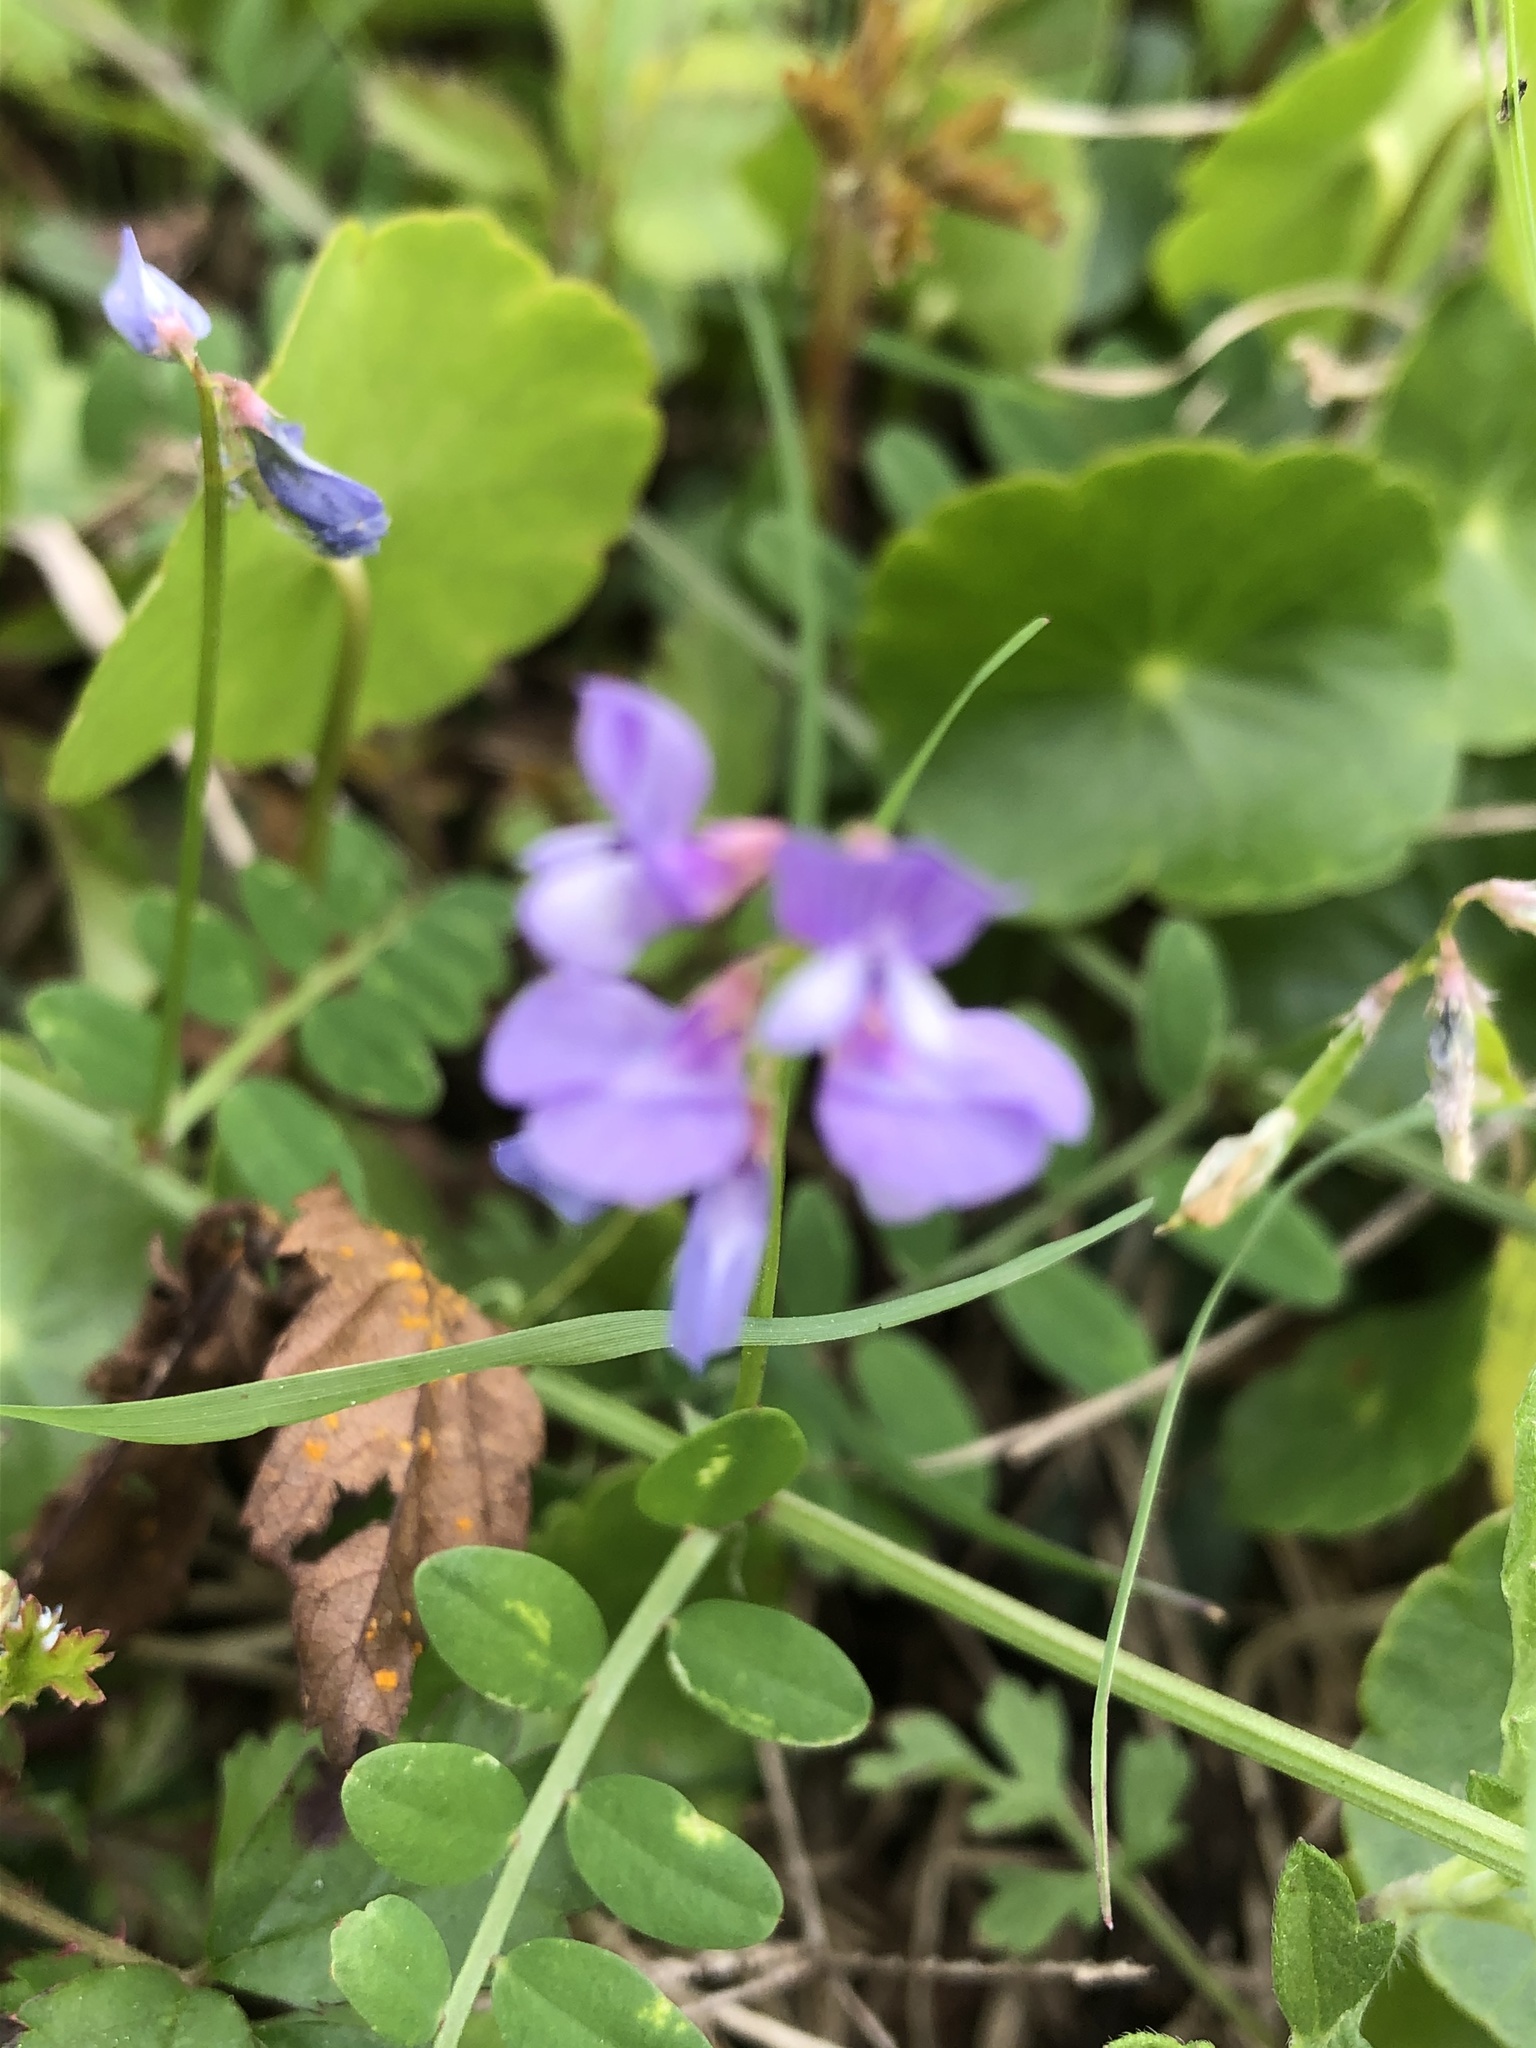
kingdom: Plantae
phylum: Tracheophyta
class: Magnoliopsida
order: Fabales
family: Fabaceae
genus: Vicia
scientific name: Vicia ludoviciana
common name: Louisiana vetch
